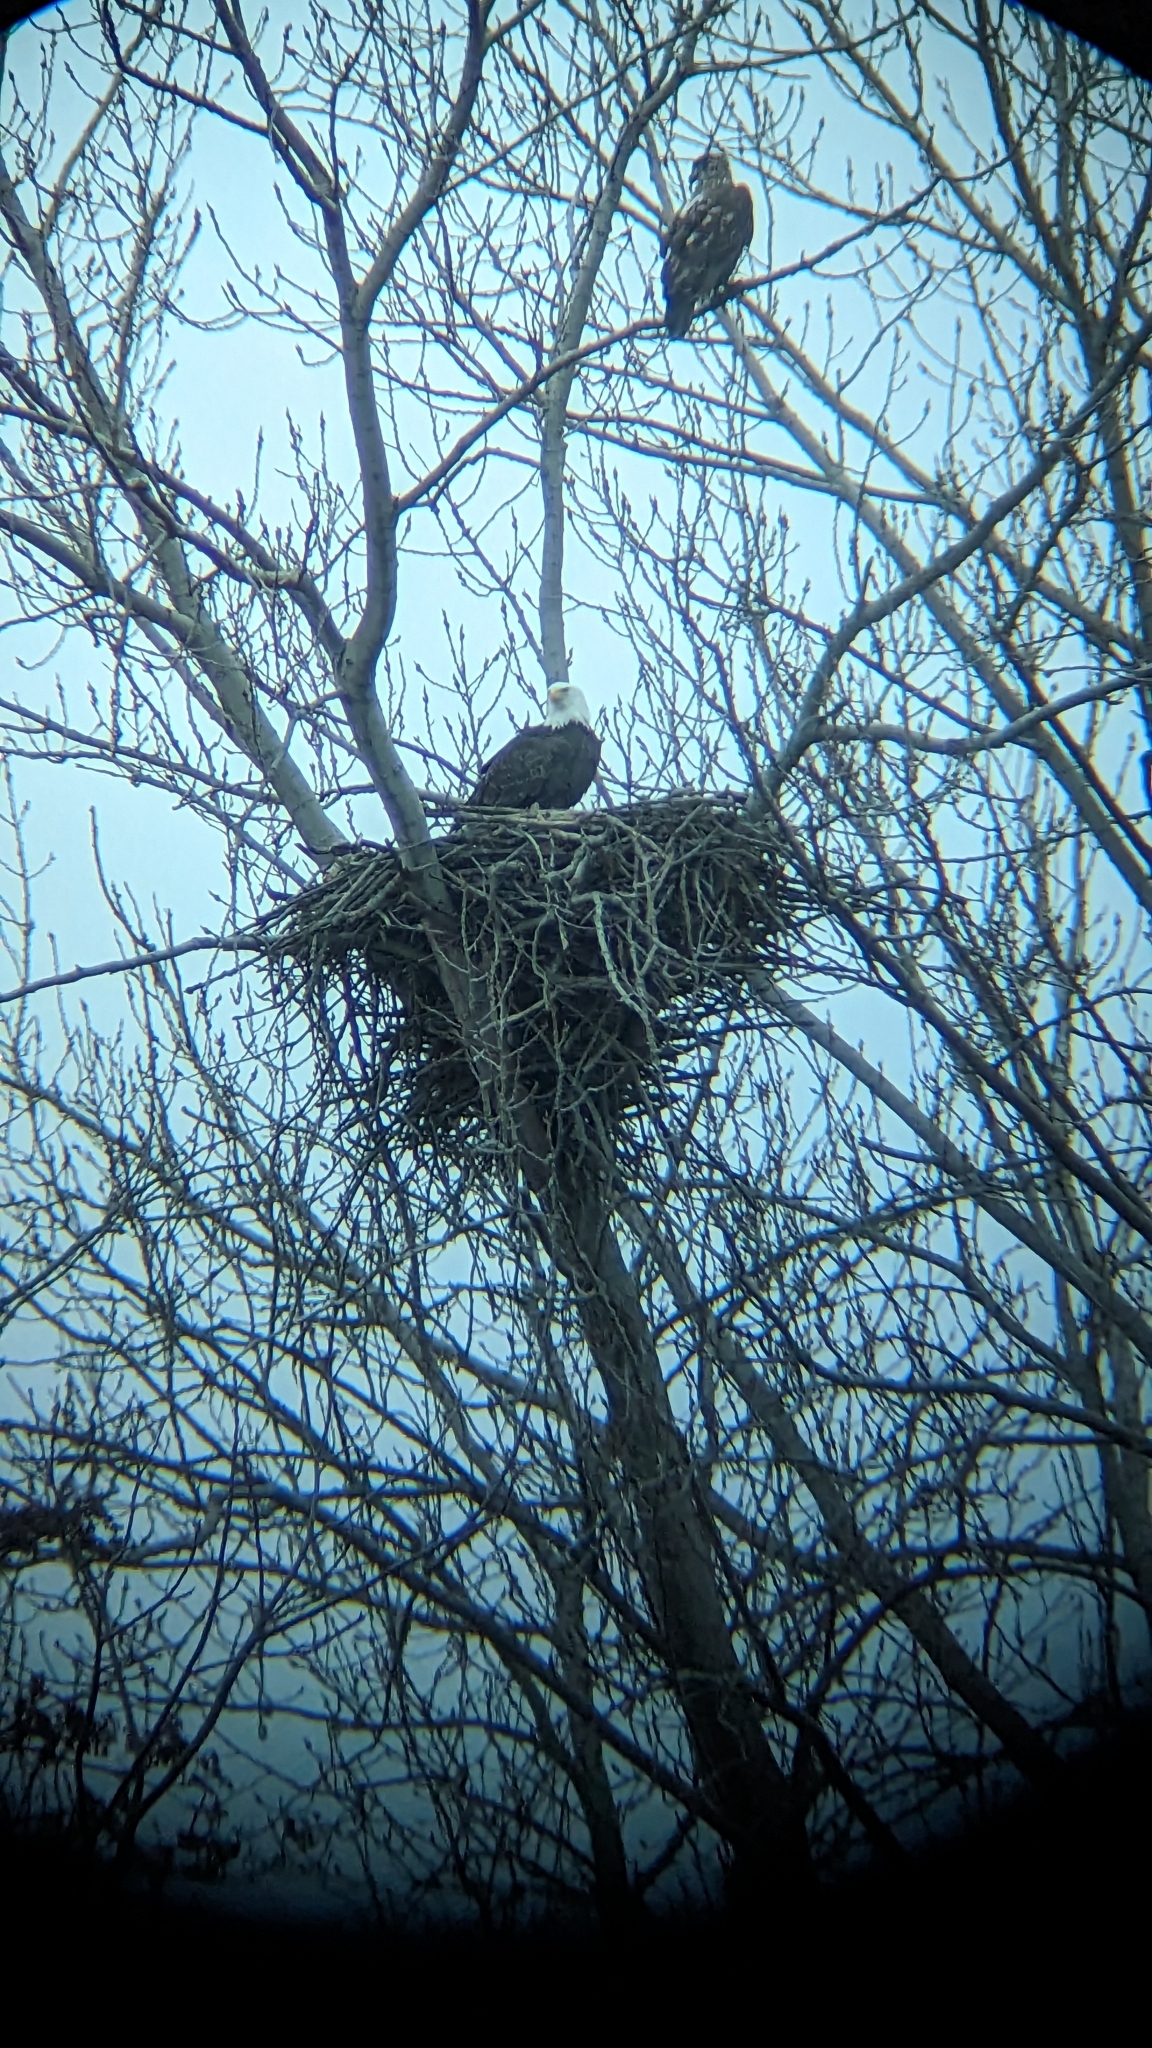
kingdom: Animalia
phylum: Chordata
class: Aves
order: Accipitriformes
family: Accipitridae
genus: Haliaeetus
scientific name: Haliaeetus leucocephalus
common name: Bald eagle
